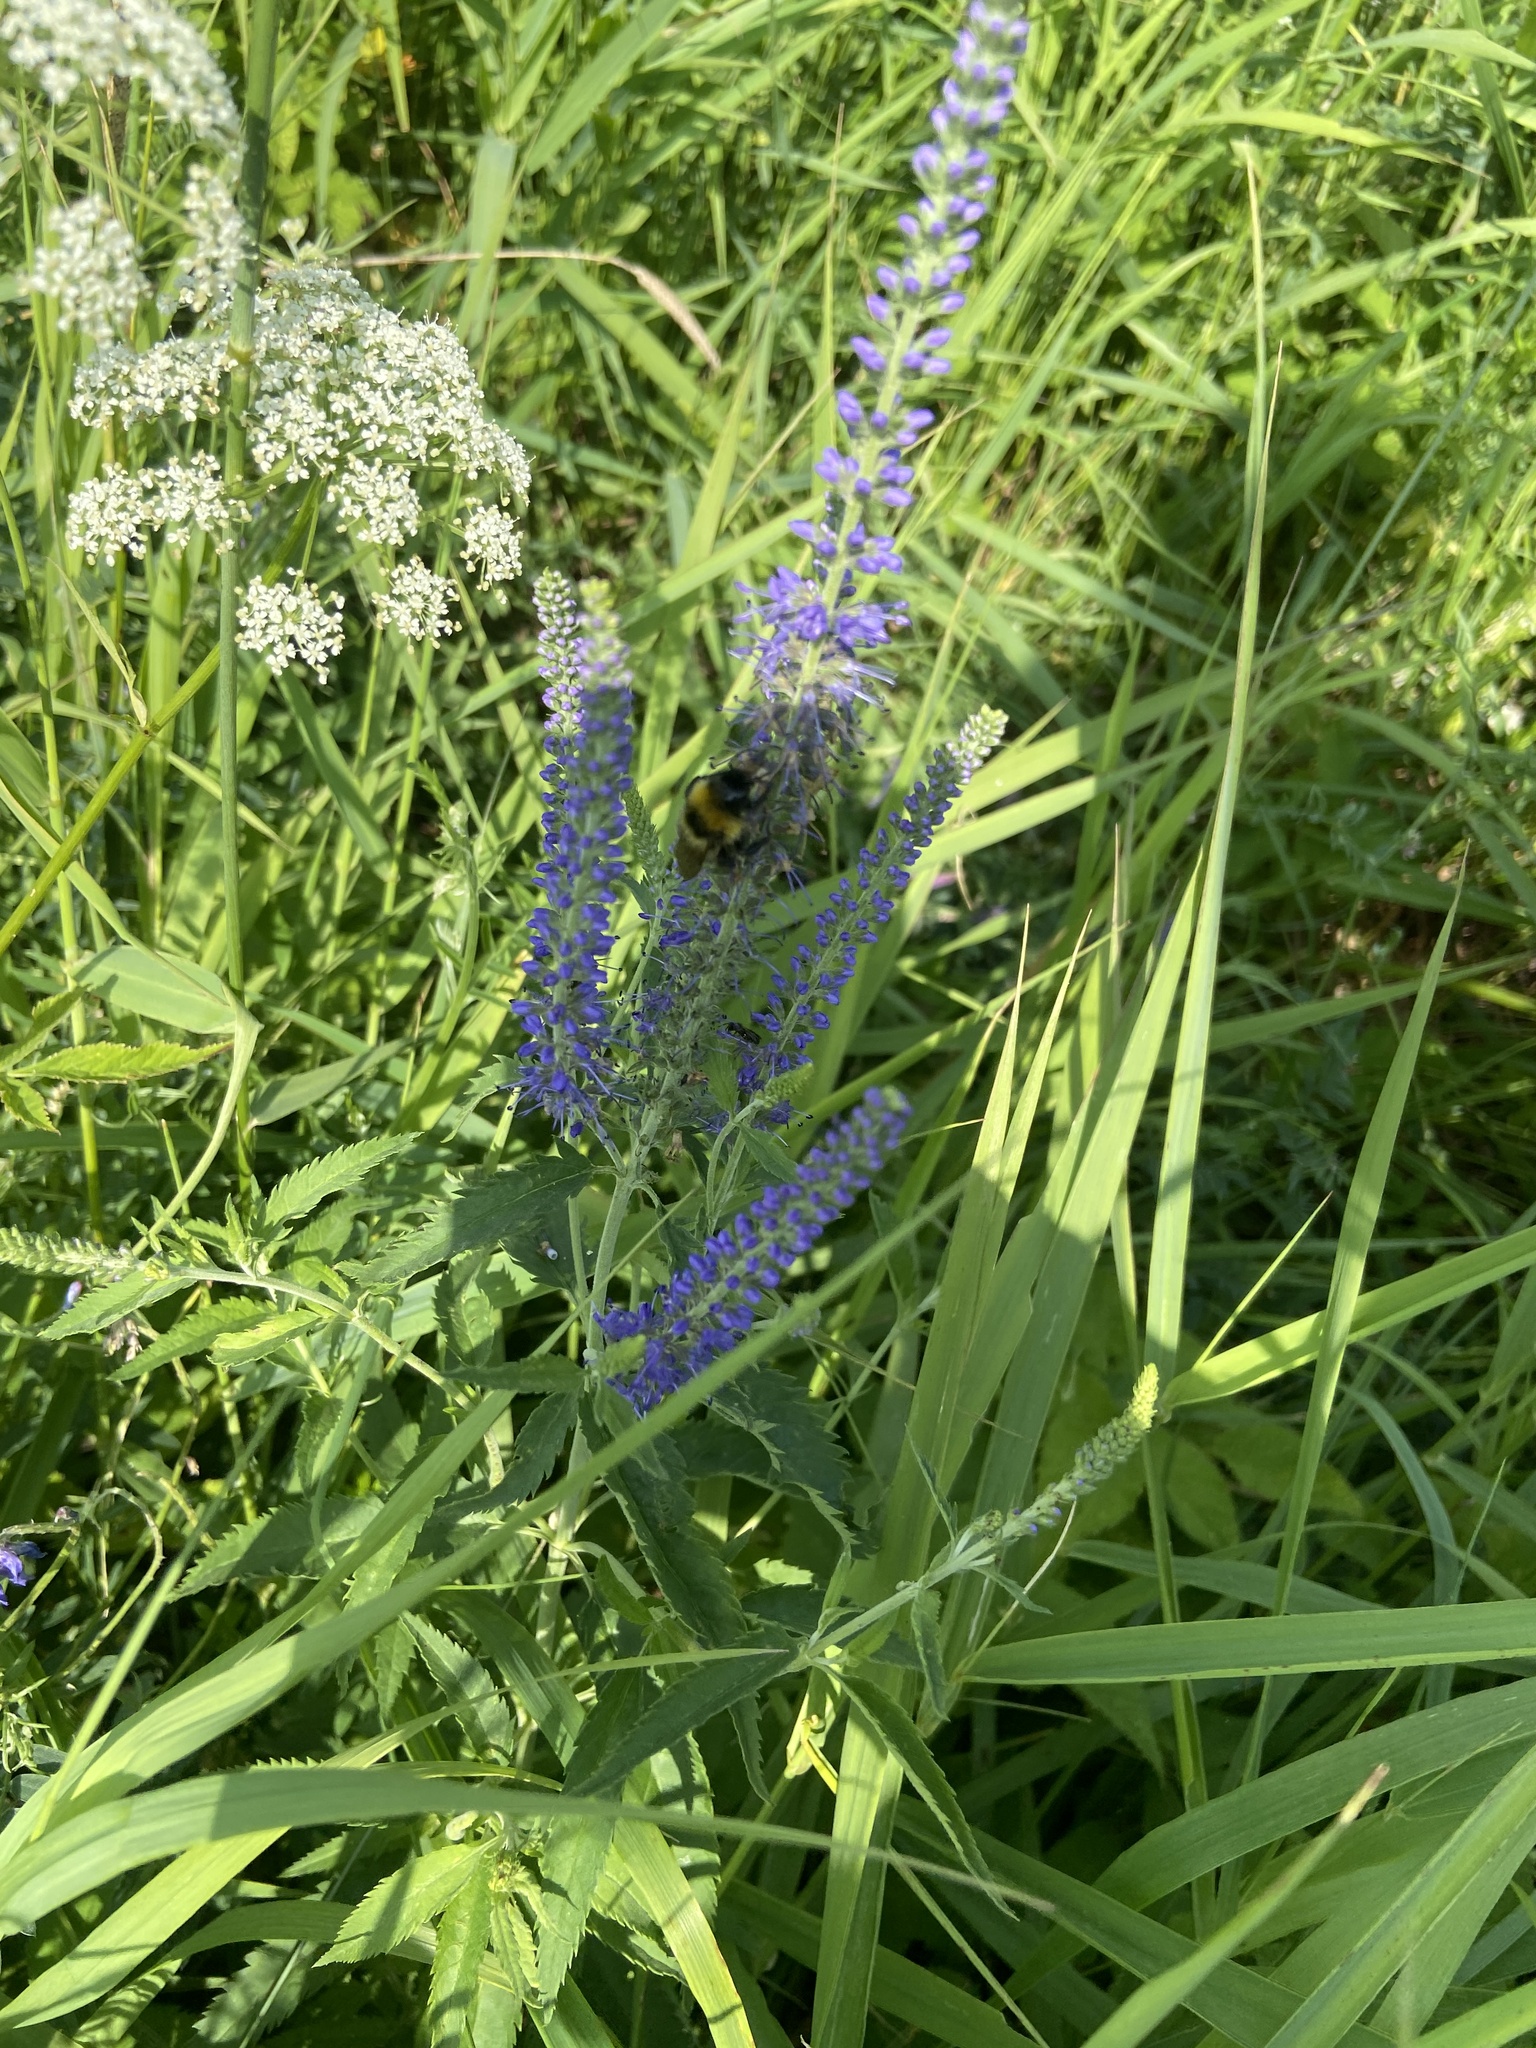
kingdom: Plantae
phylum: Tracheophyta
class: Magnoliopsida
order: Lamiales
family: Plantaginaceae
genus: Veronica
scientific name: Veronica longifolia
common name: Garden speedwell
